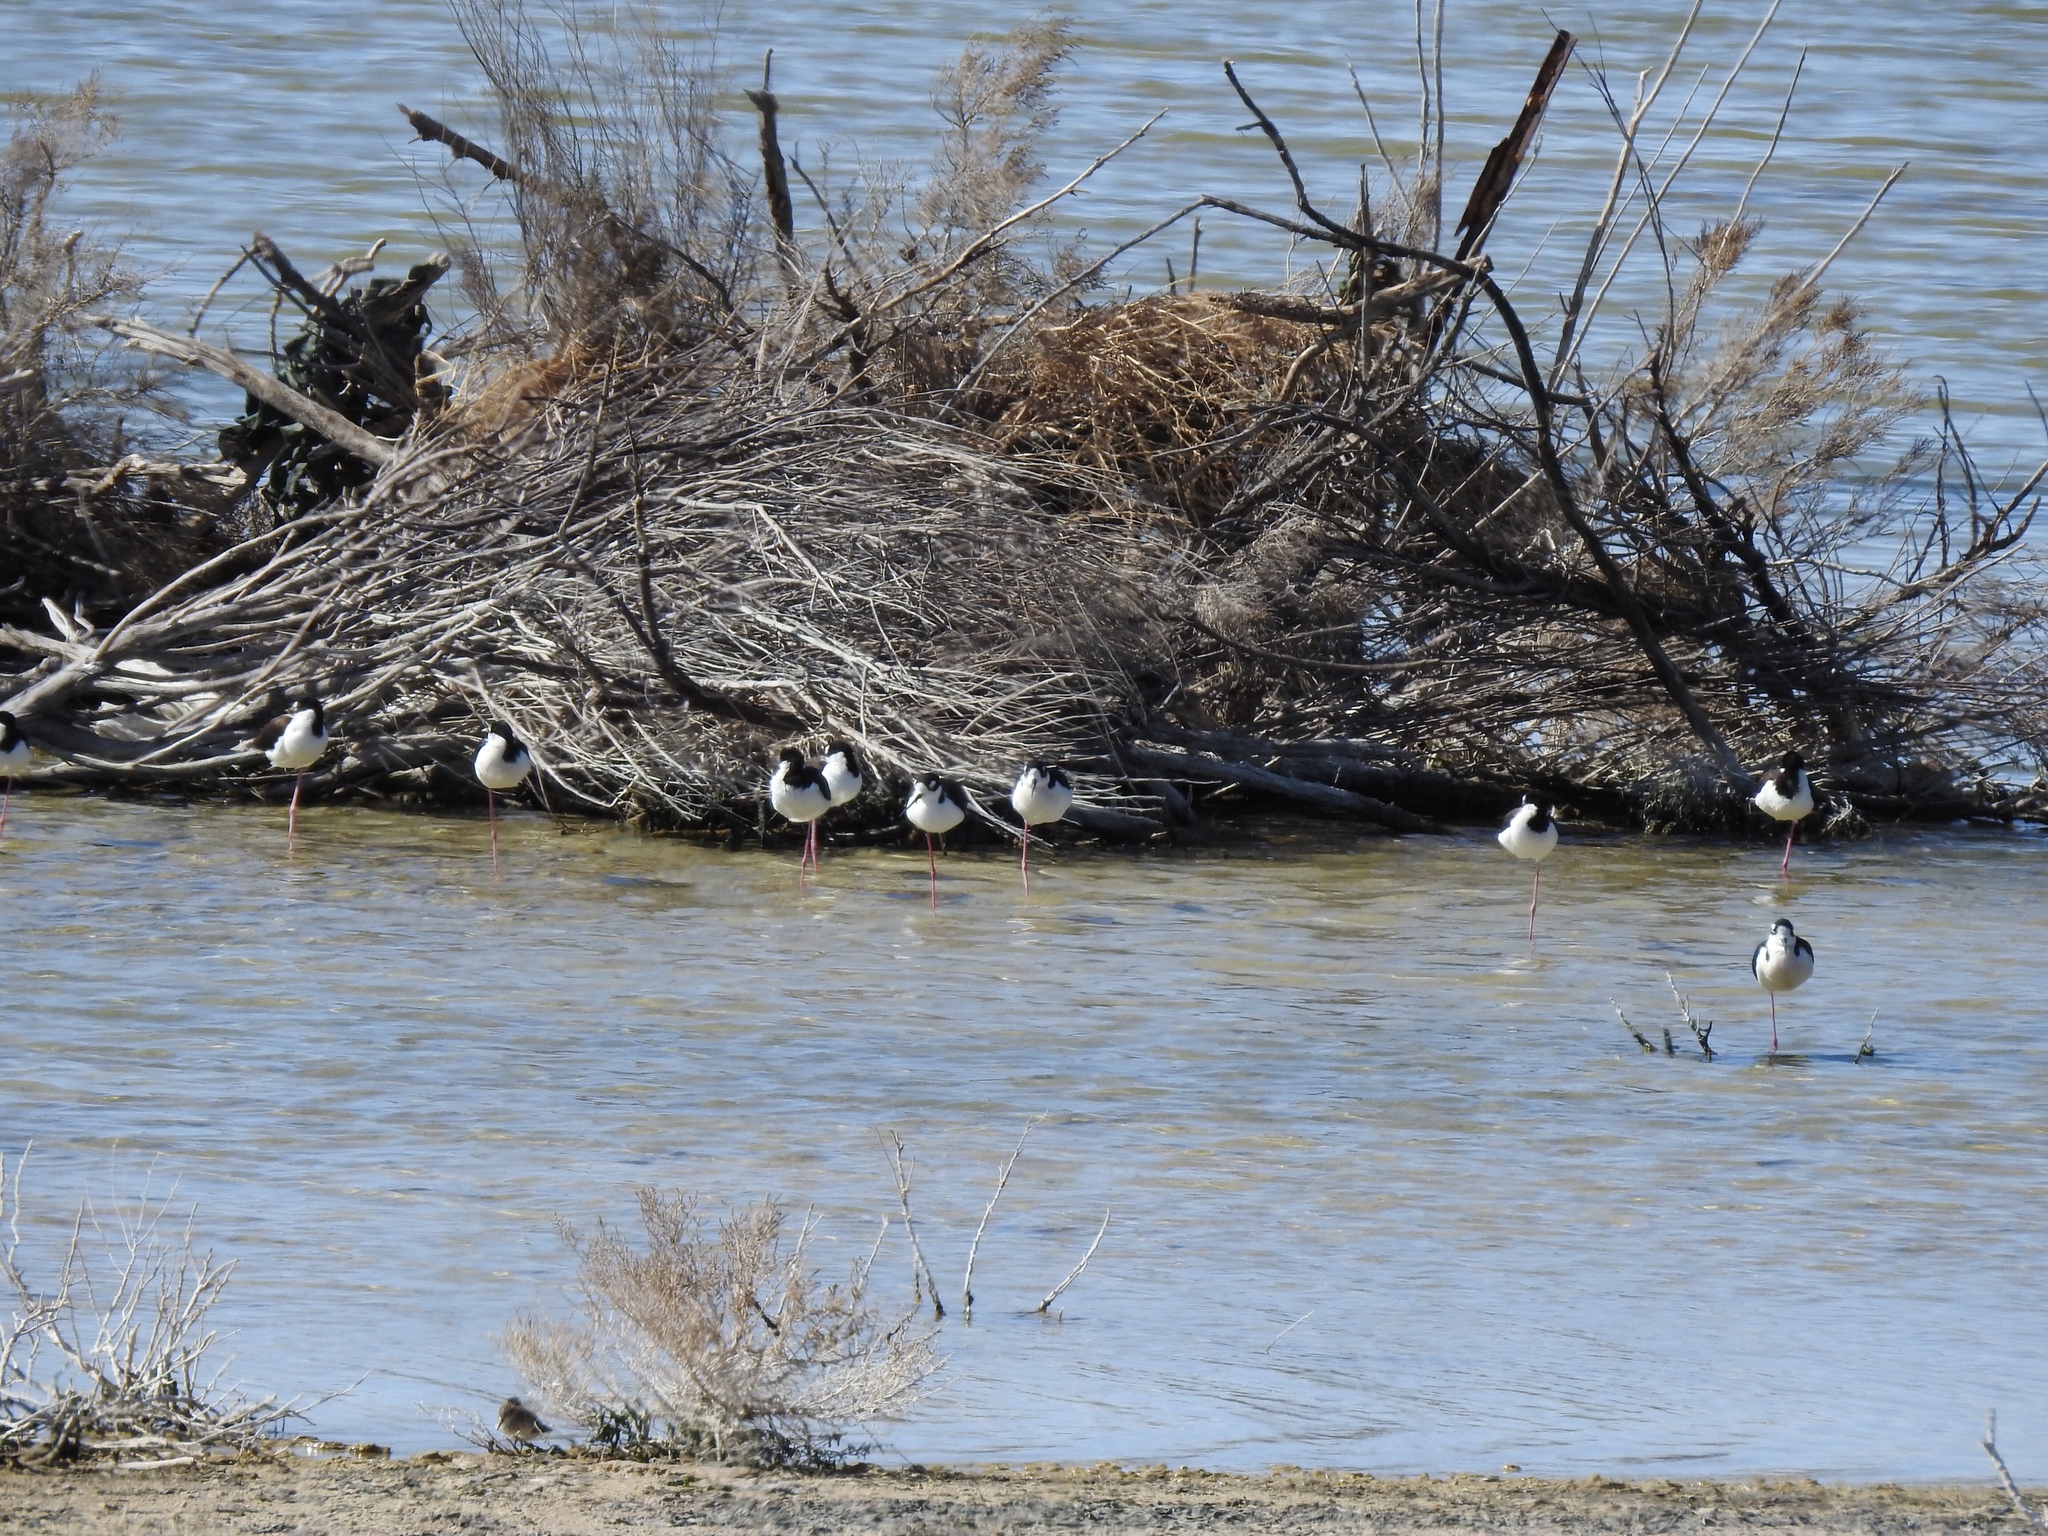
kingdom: Animalia
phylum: Chordata
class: Aves
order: Charadriiformes
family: Recurvirostridae
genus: Himantopus
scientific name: Himantopus mexicanus
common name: Black-necked stilt
